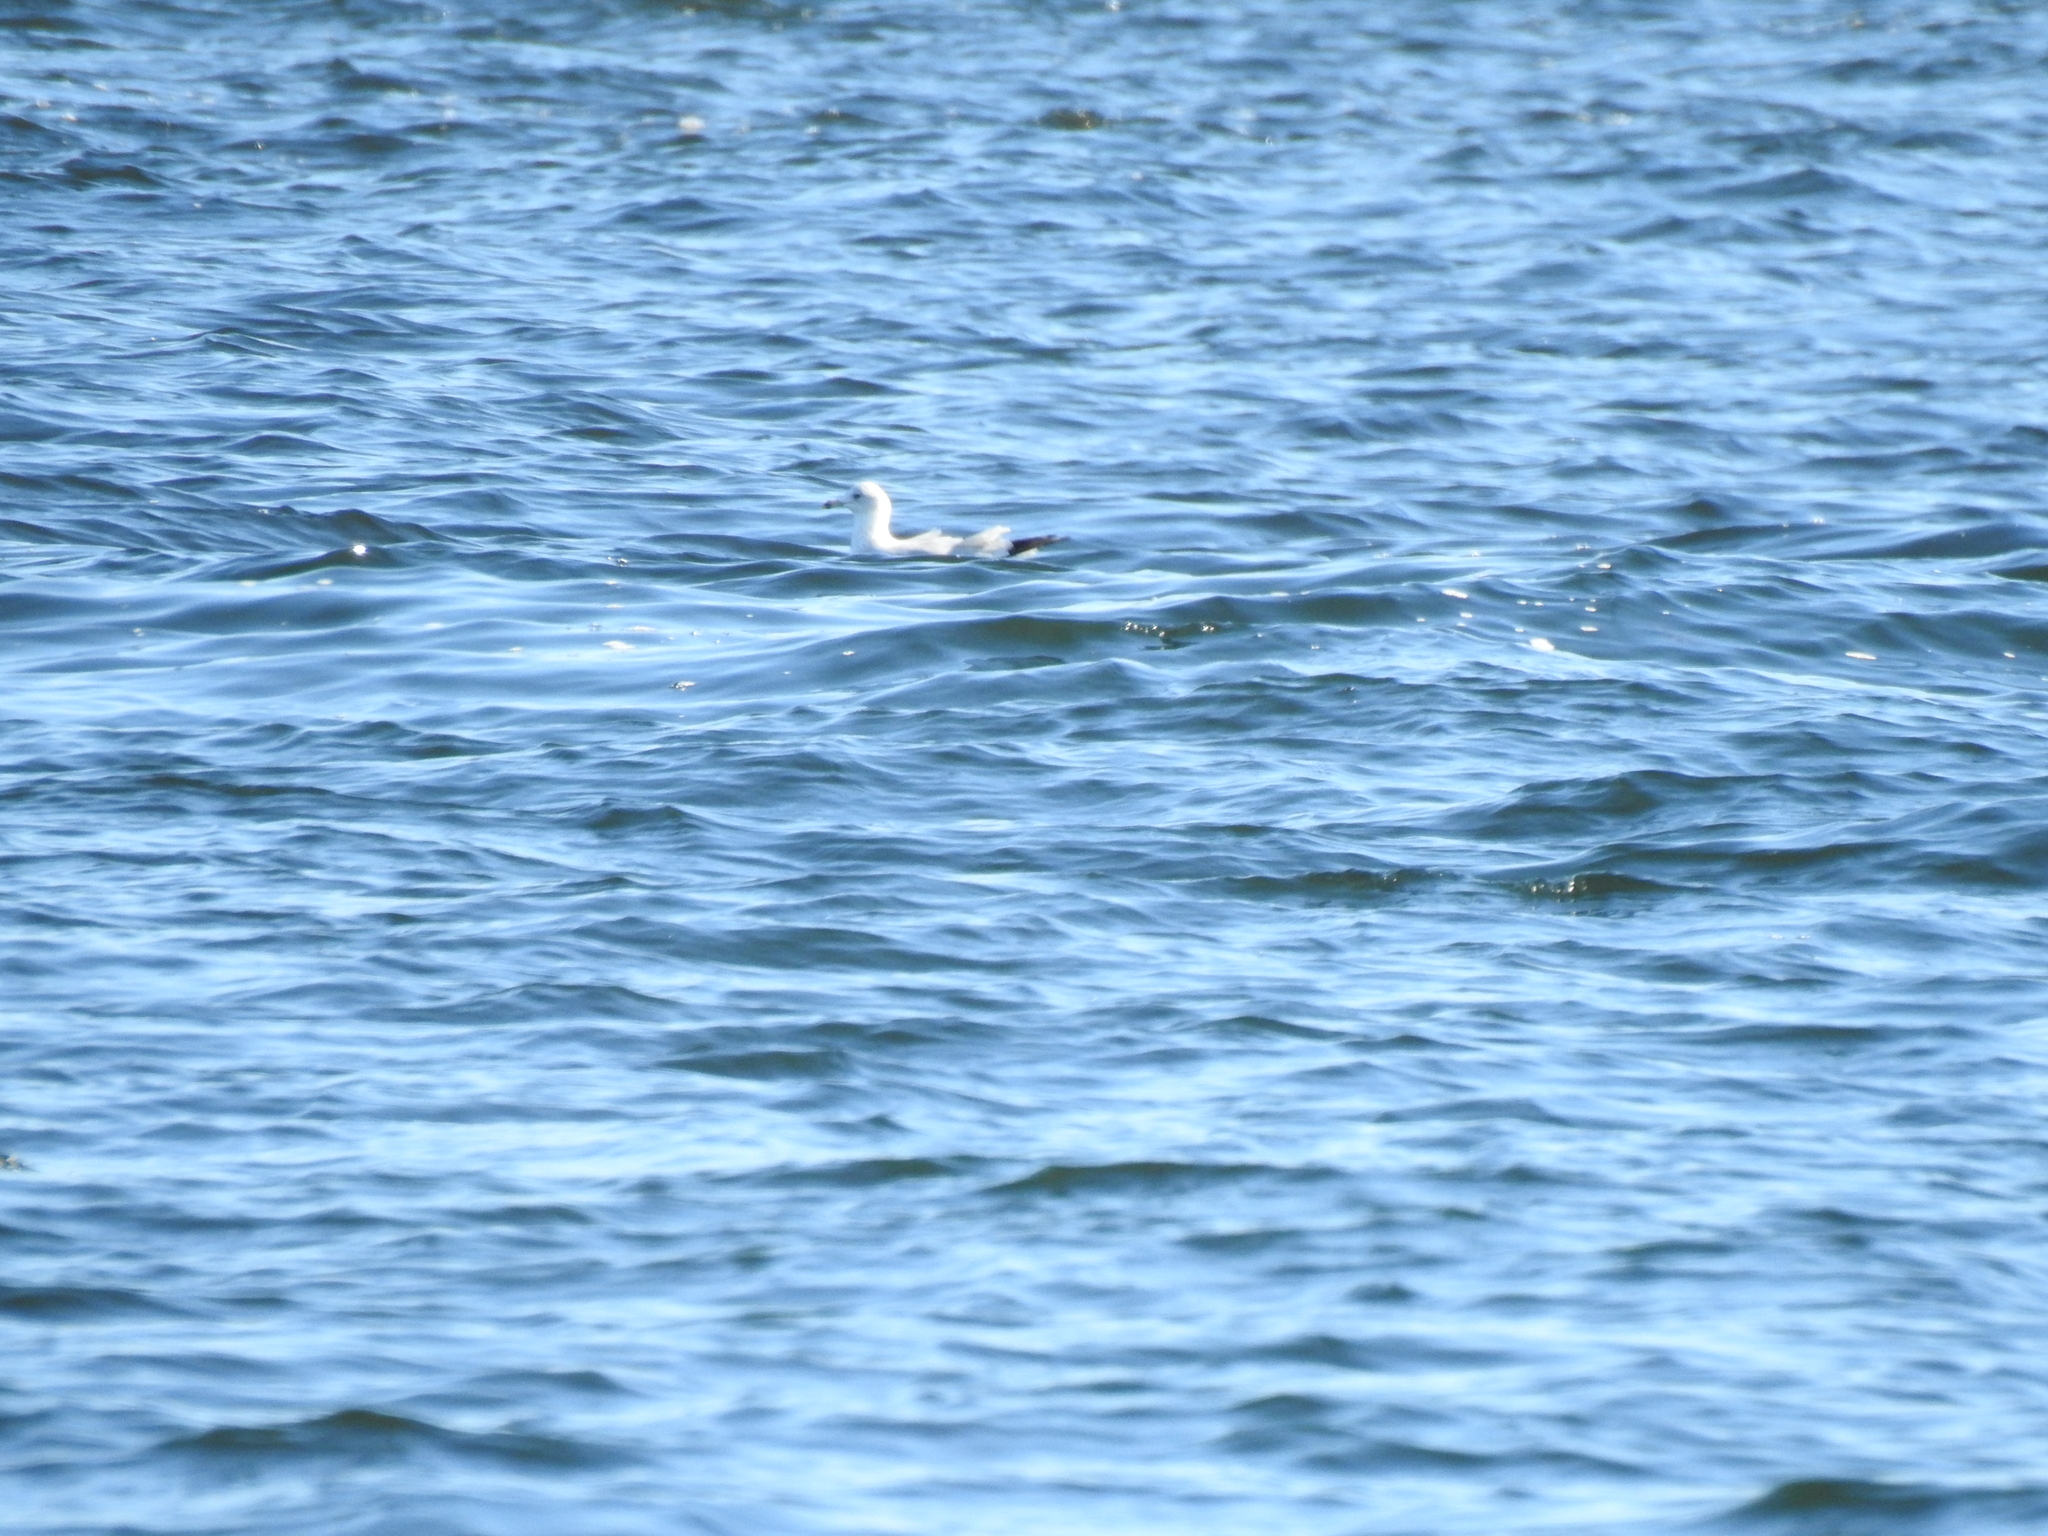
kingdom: Animalia
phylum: Chordata
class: Aves
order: Charadriiformes
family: Laridae
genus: Larus
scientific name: Larus delawarensis
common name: Ring-billed gull
